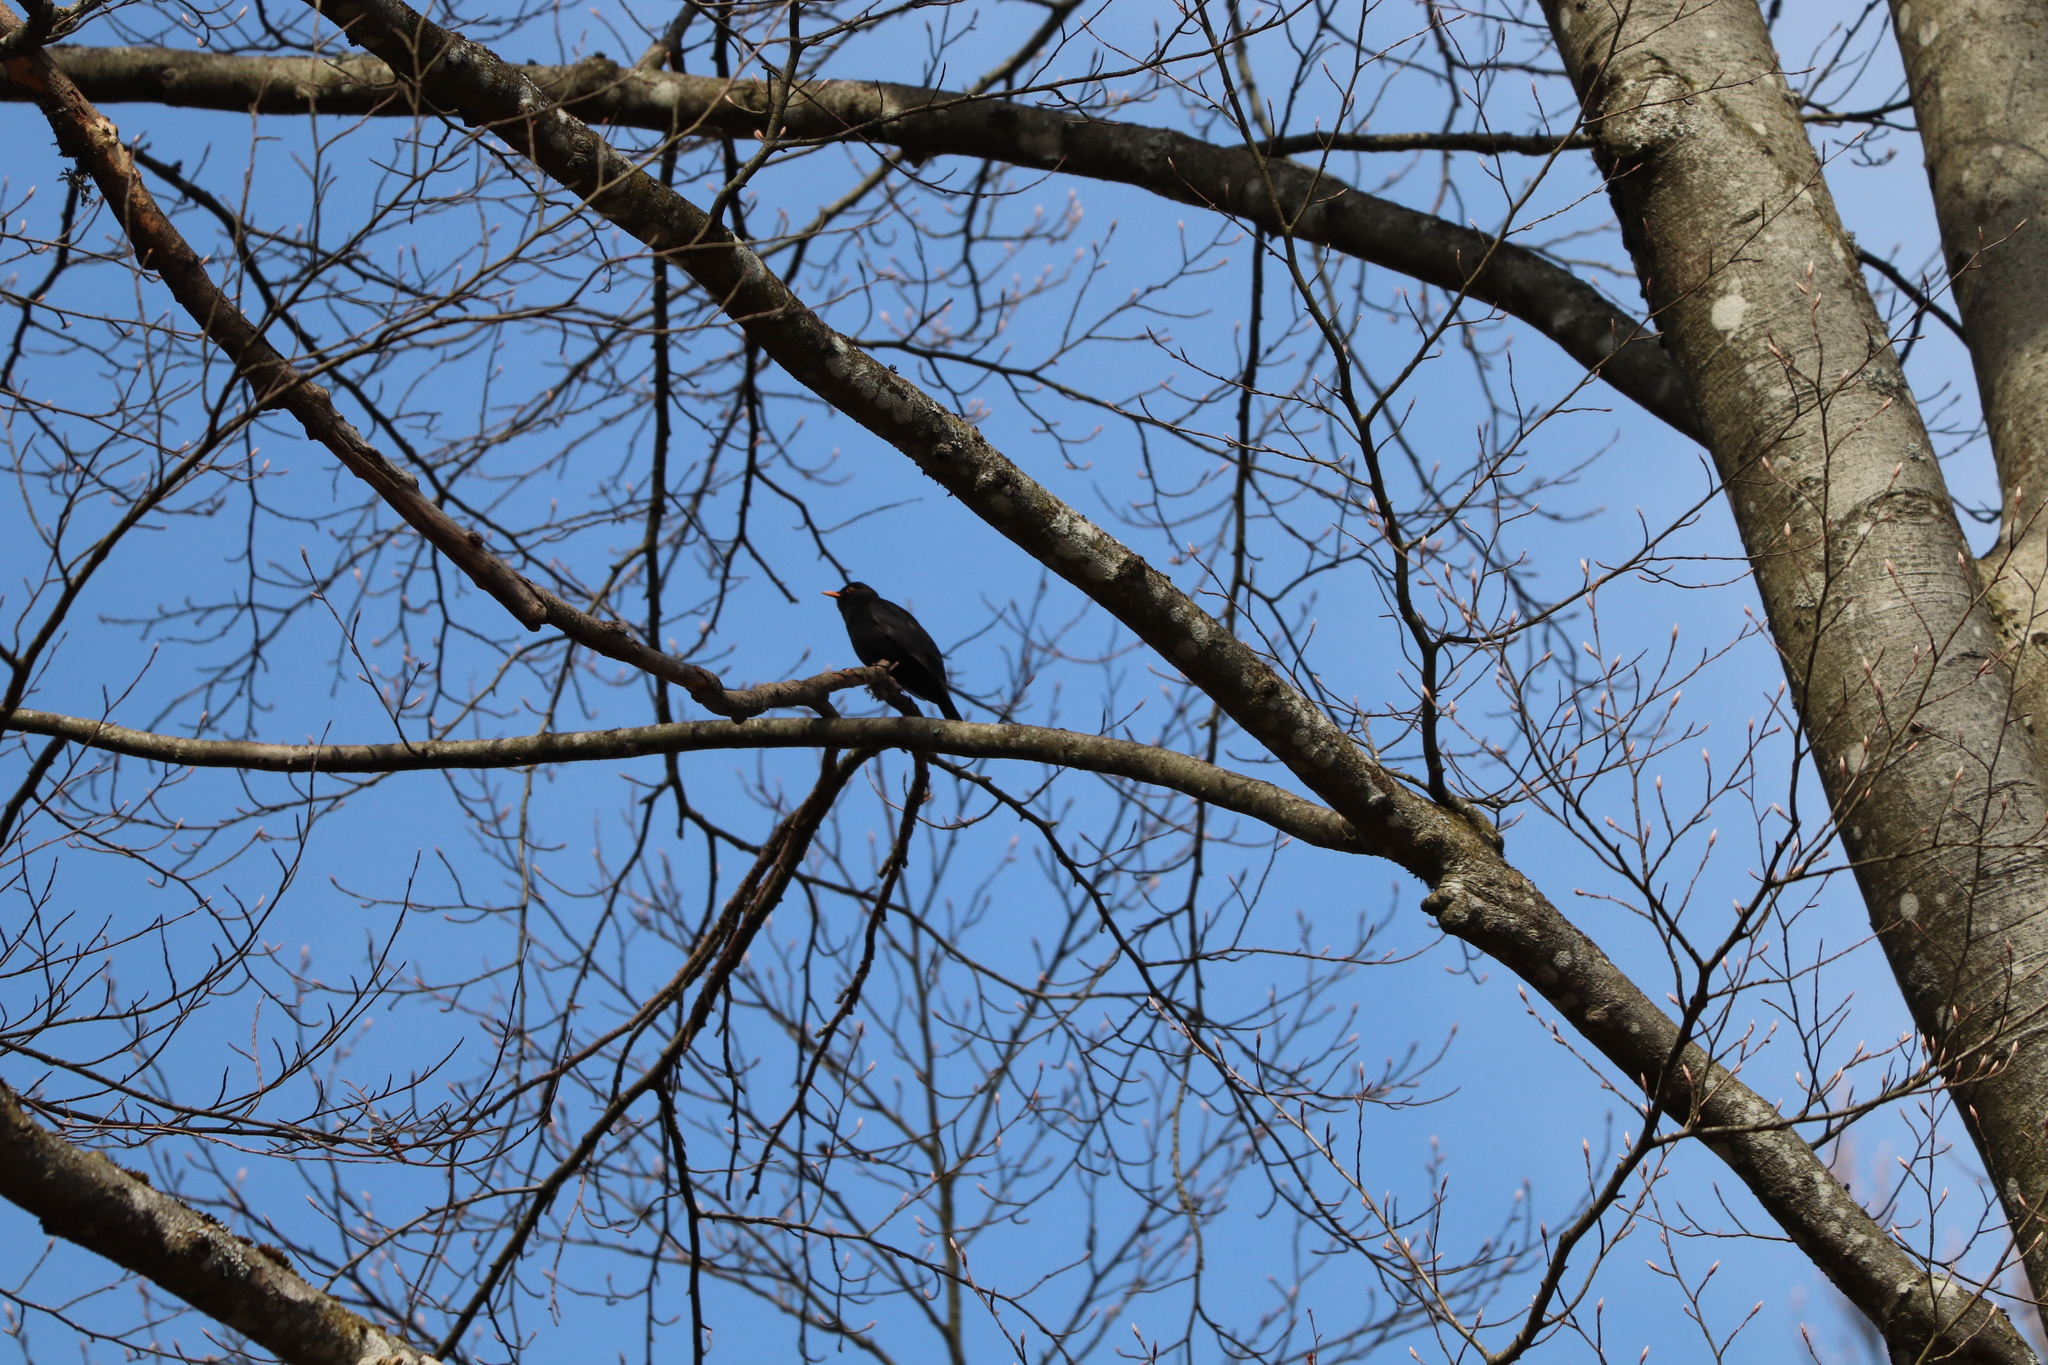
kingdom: Animalia
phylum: Chordata
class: Aves
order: Passeriformes
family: Turdidae
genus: Turdus
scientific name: Turdus merula
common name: Common blackbird
